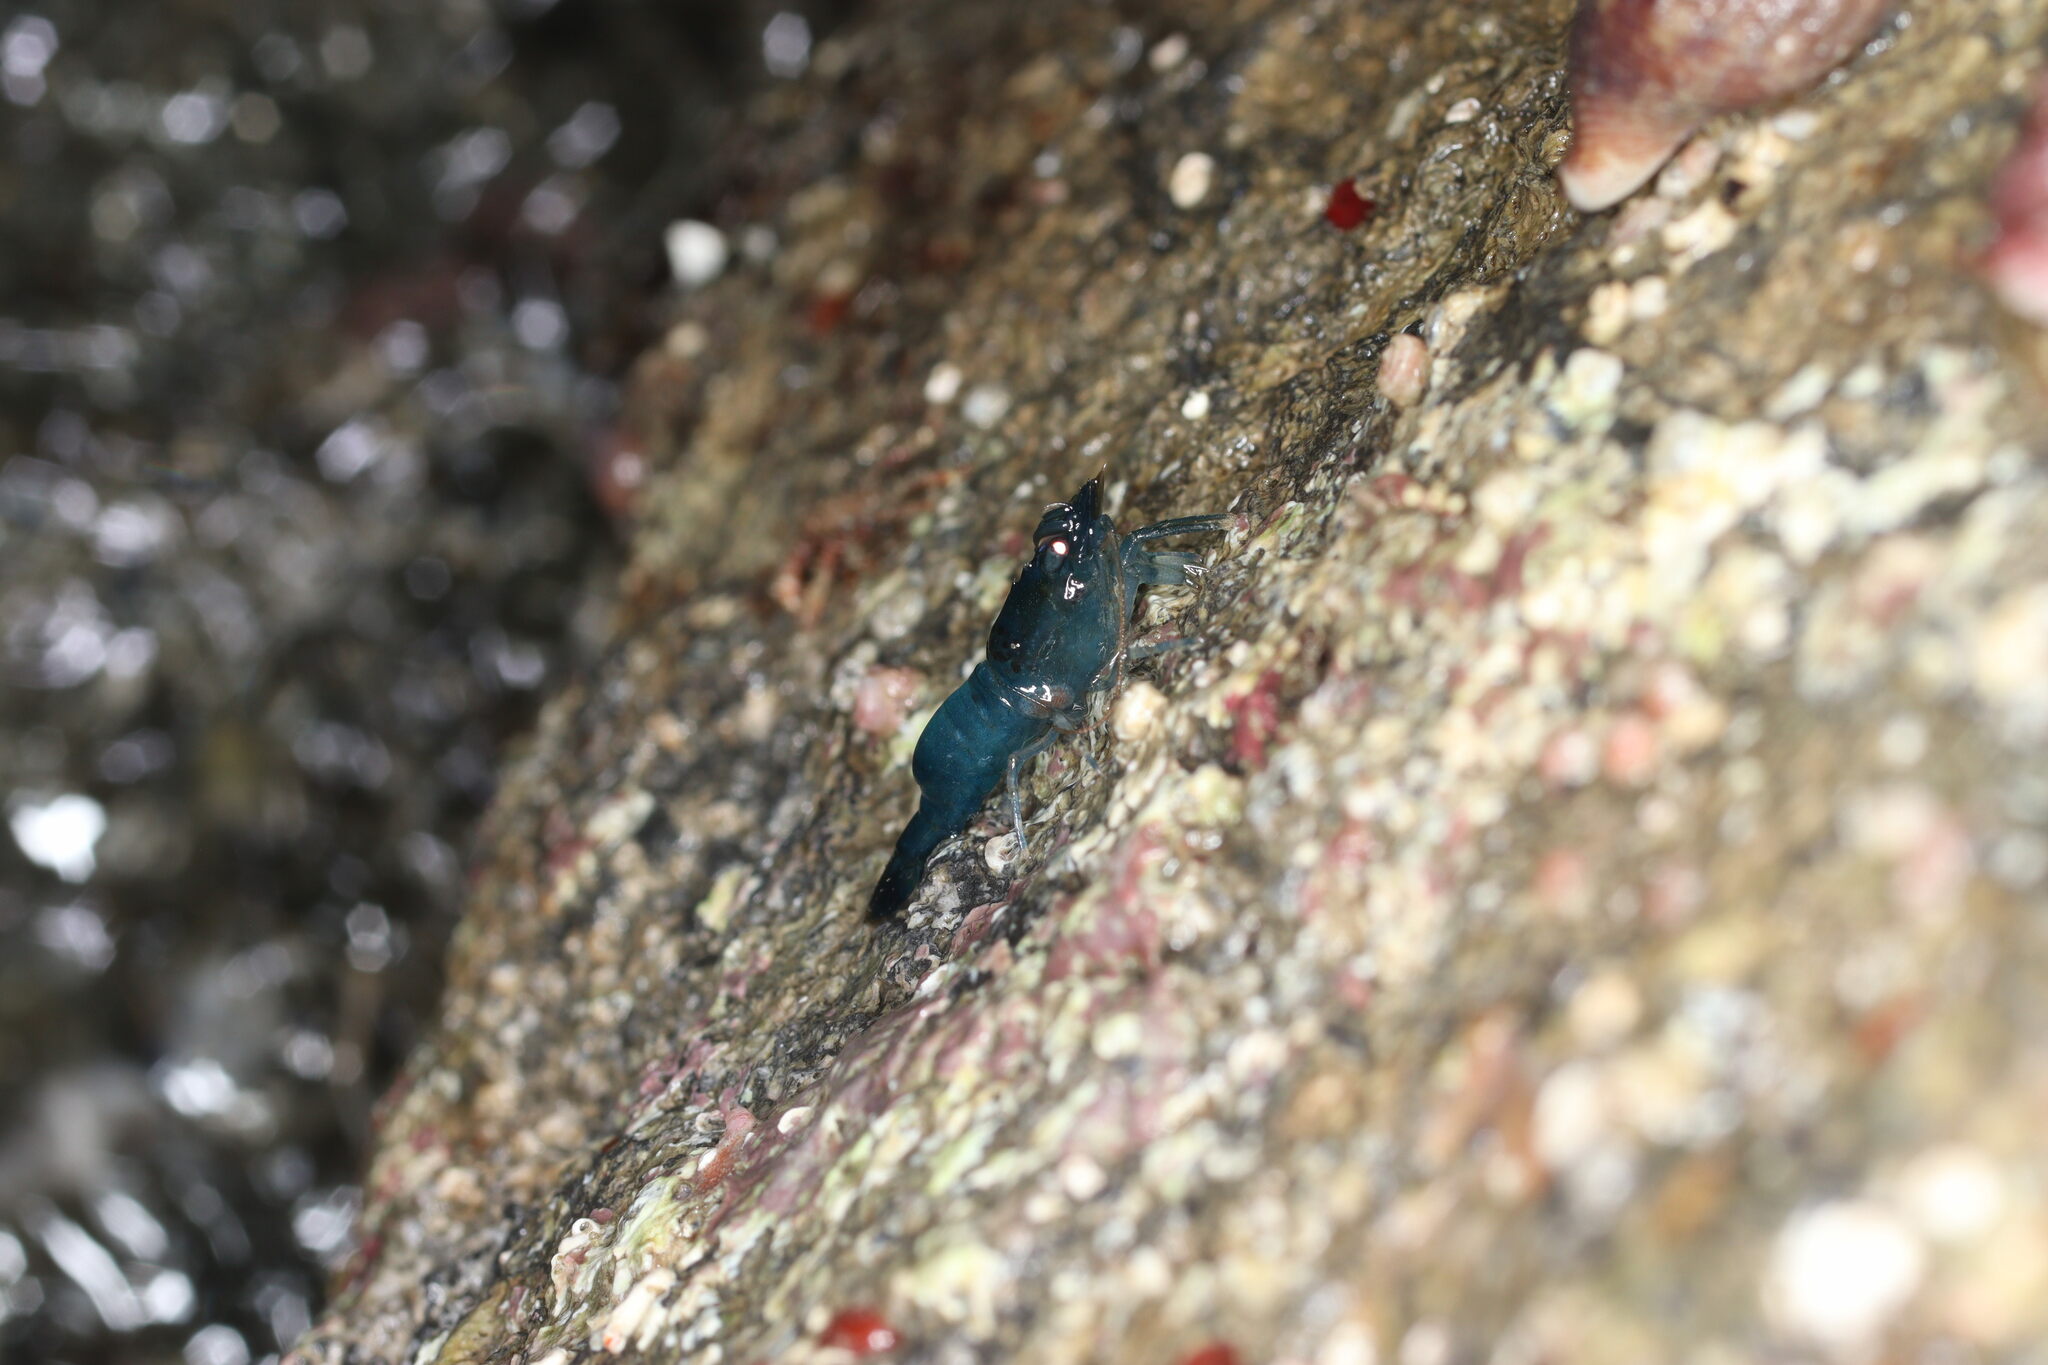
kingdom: Animalia
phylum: Arthropoda
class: Malacostraca
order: Decapoda
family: Thoridae
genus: Heptacarpus
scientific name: Heptacarpus brevirostris
